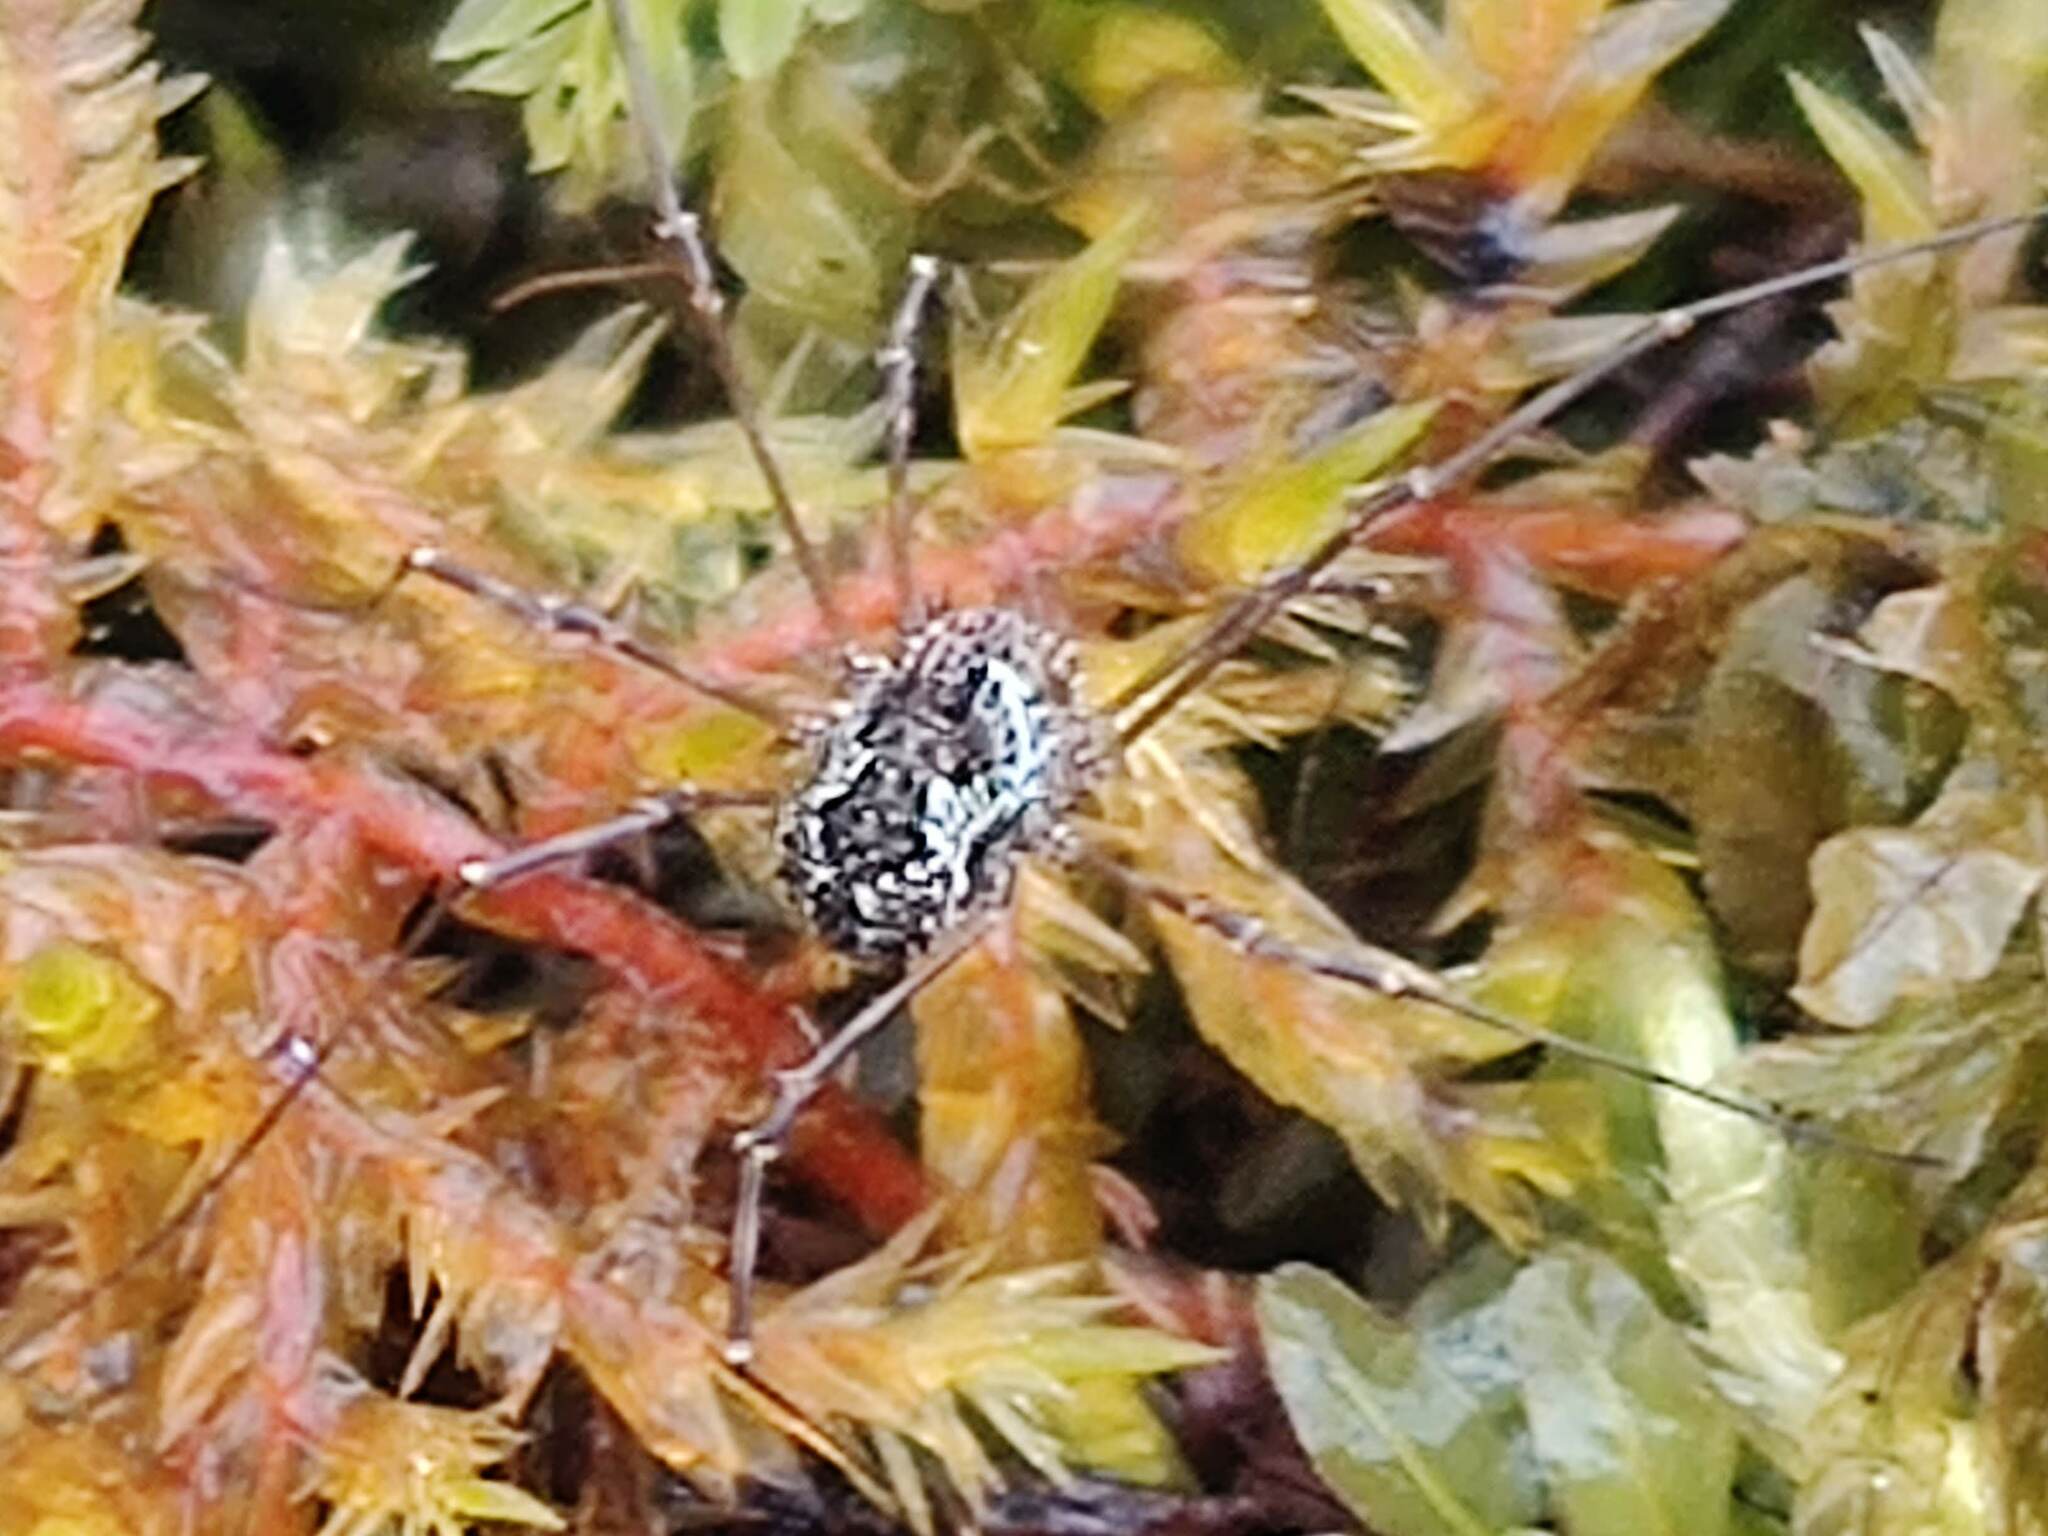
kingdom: Animalia
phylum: Arthropoda
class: Arachnida
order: Opiliones
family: Phalangiidae
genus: Megabunus
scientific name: Megabunus diadema
